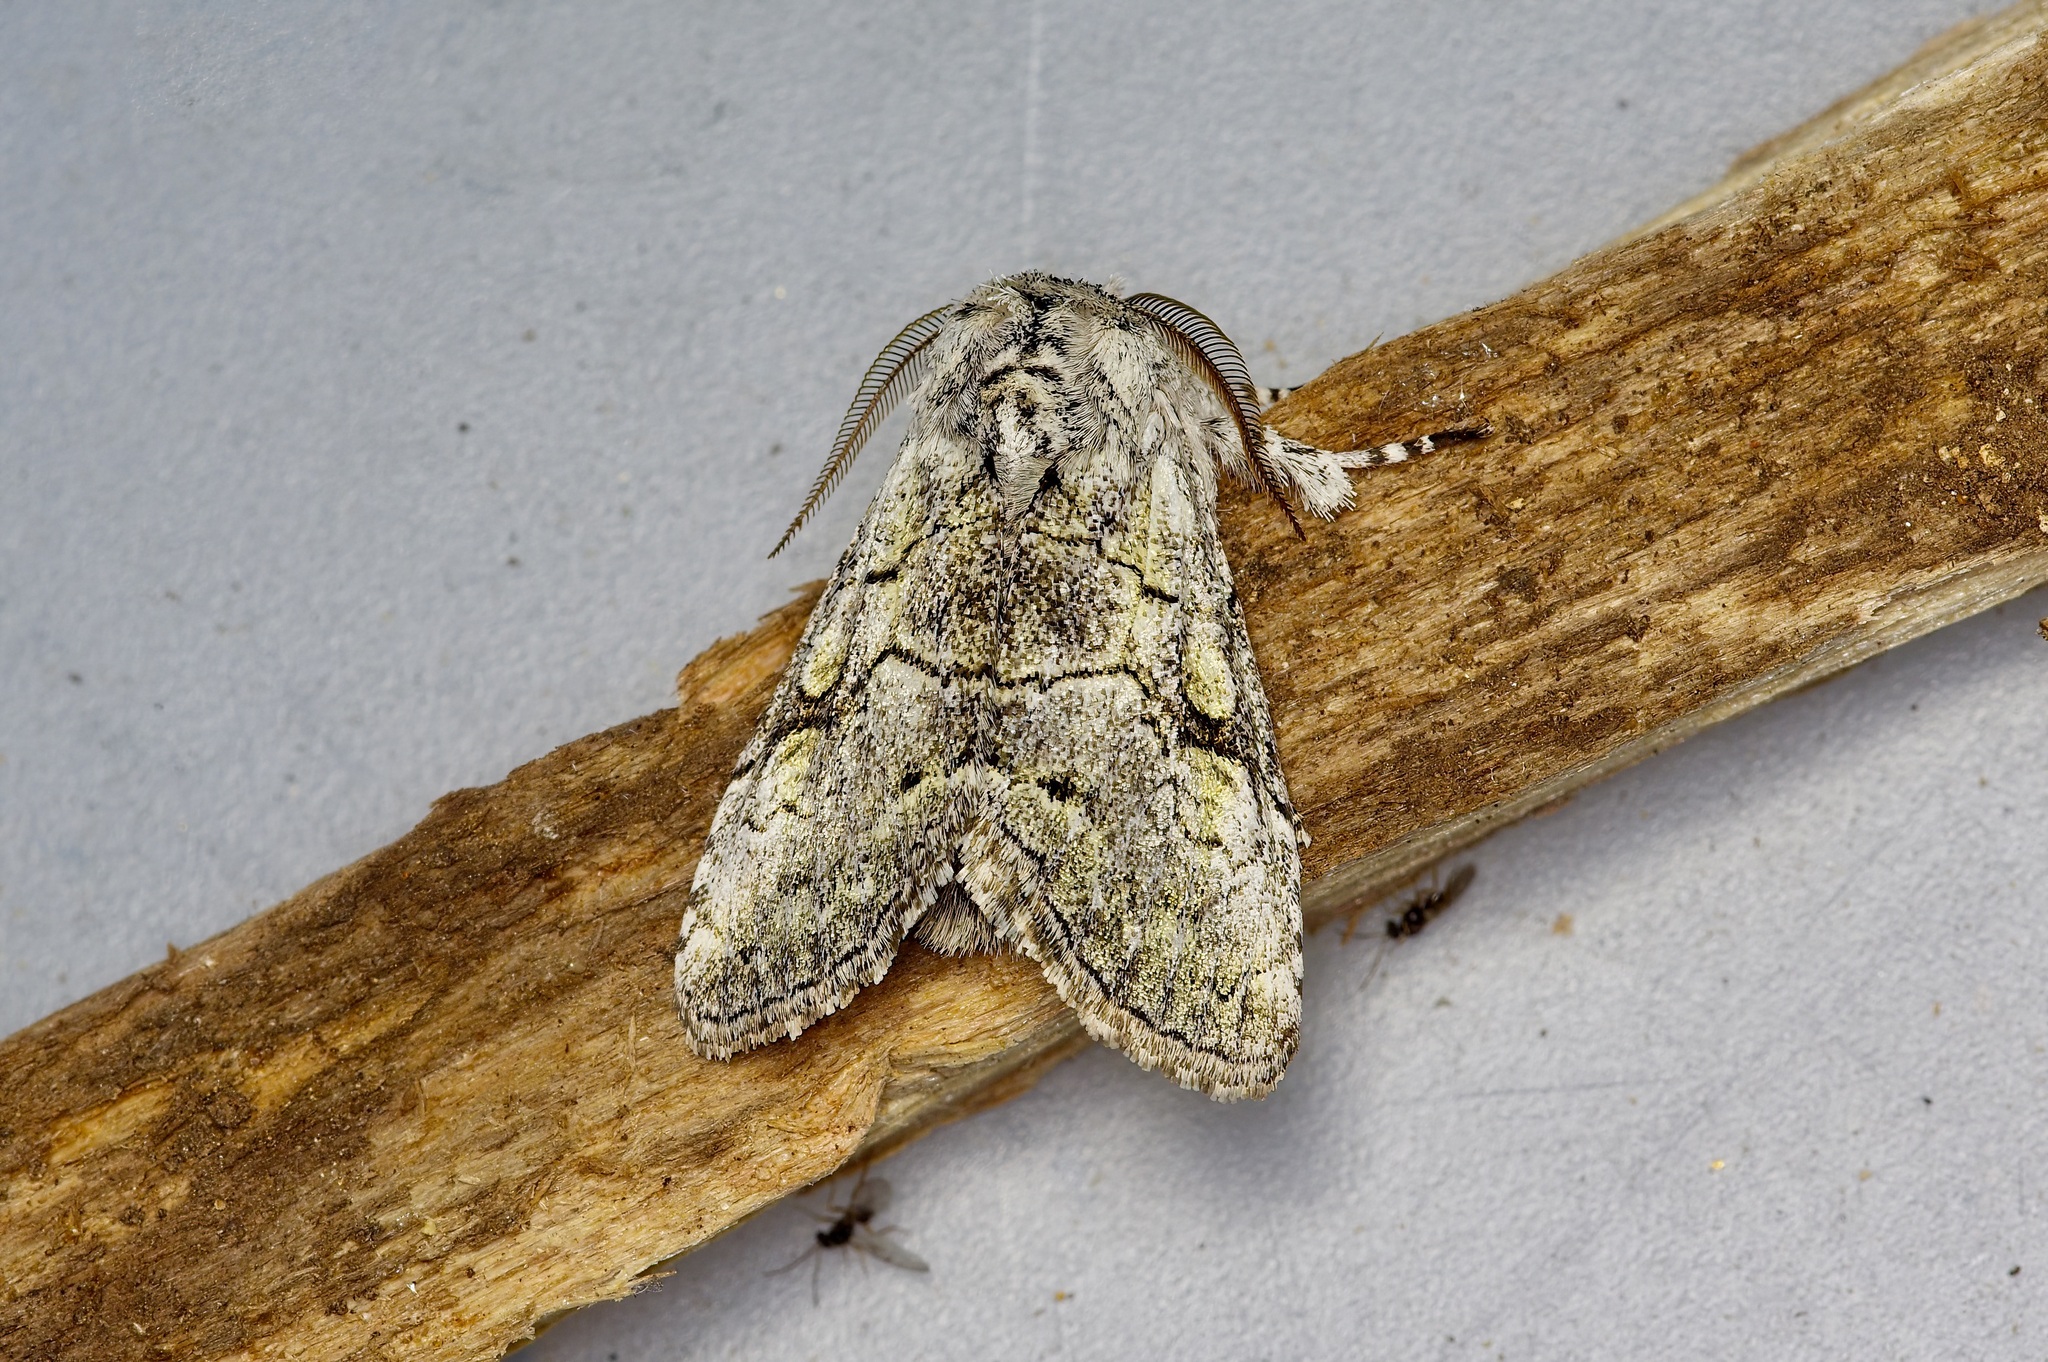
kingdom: Animalia
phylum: Arthropoda
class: Insecta
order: Lepidoptera
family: Noctuidae
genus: Charadra
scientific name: Charadra dispulsa
